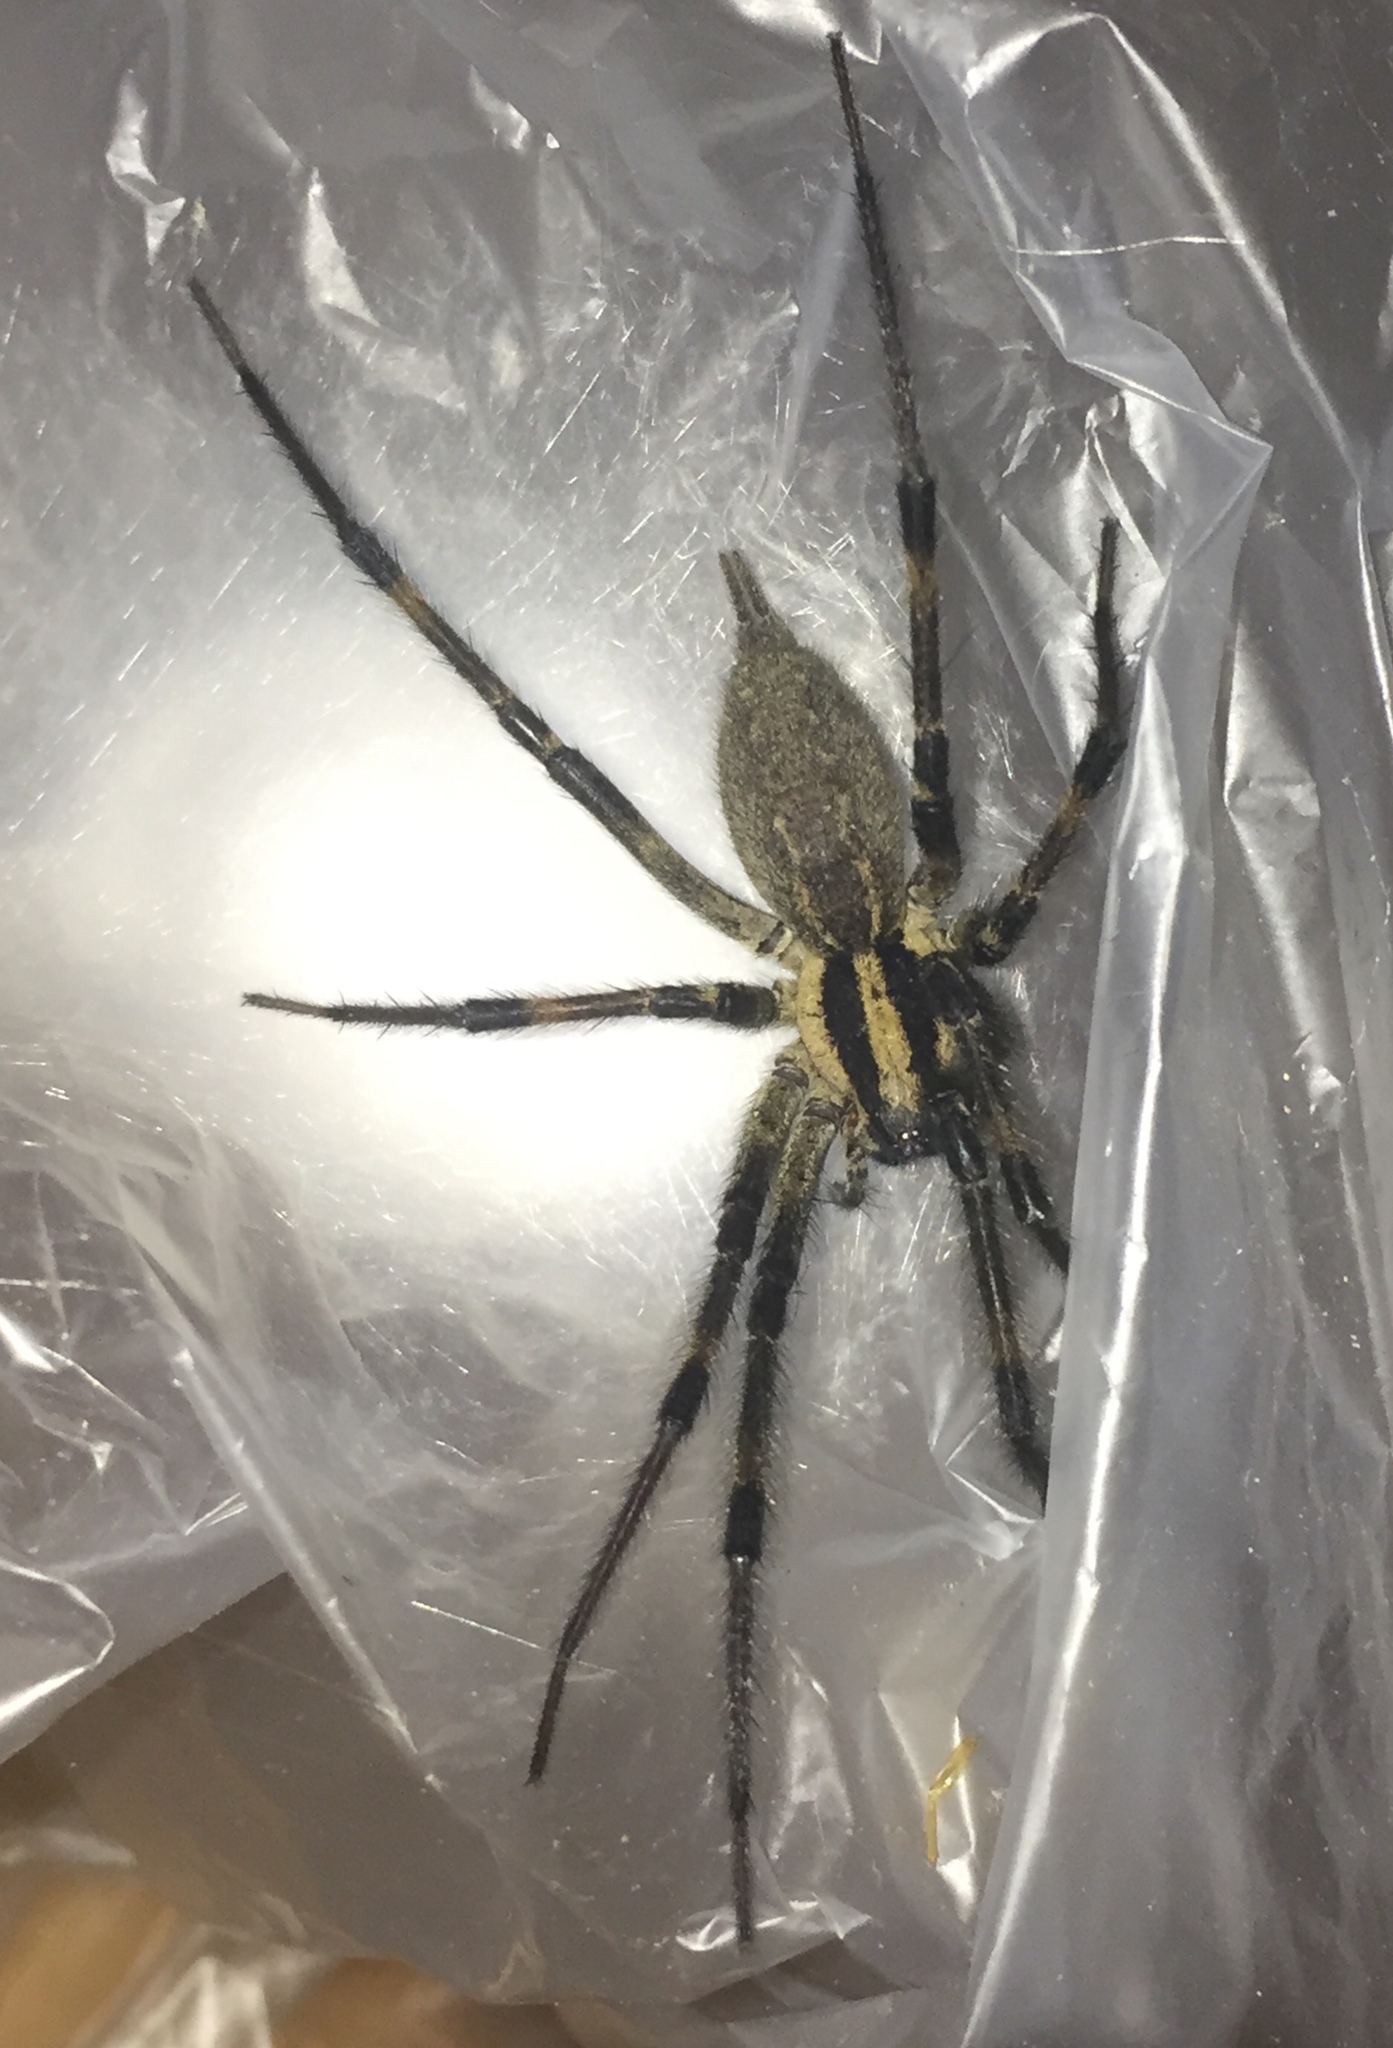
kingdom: Animalia
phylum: Arthropoda
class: Arachnida
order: Araneae
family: Araneidae
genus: Argiope
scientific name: Argiope aurantia
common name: Orb weavers
